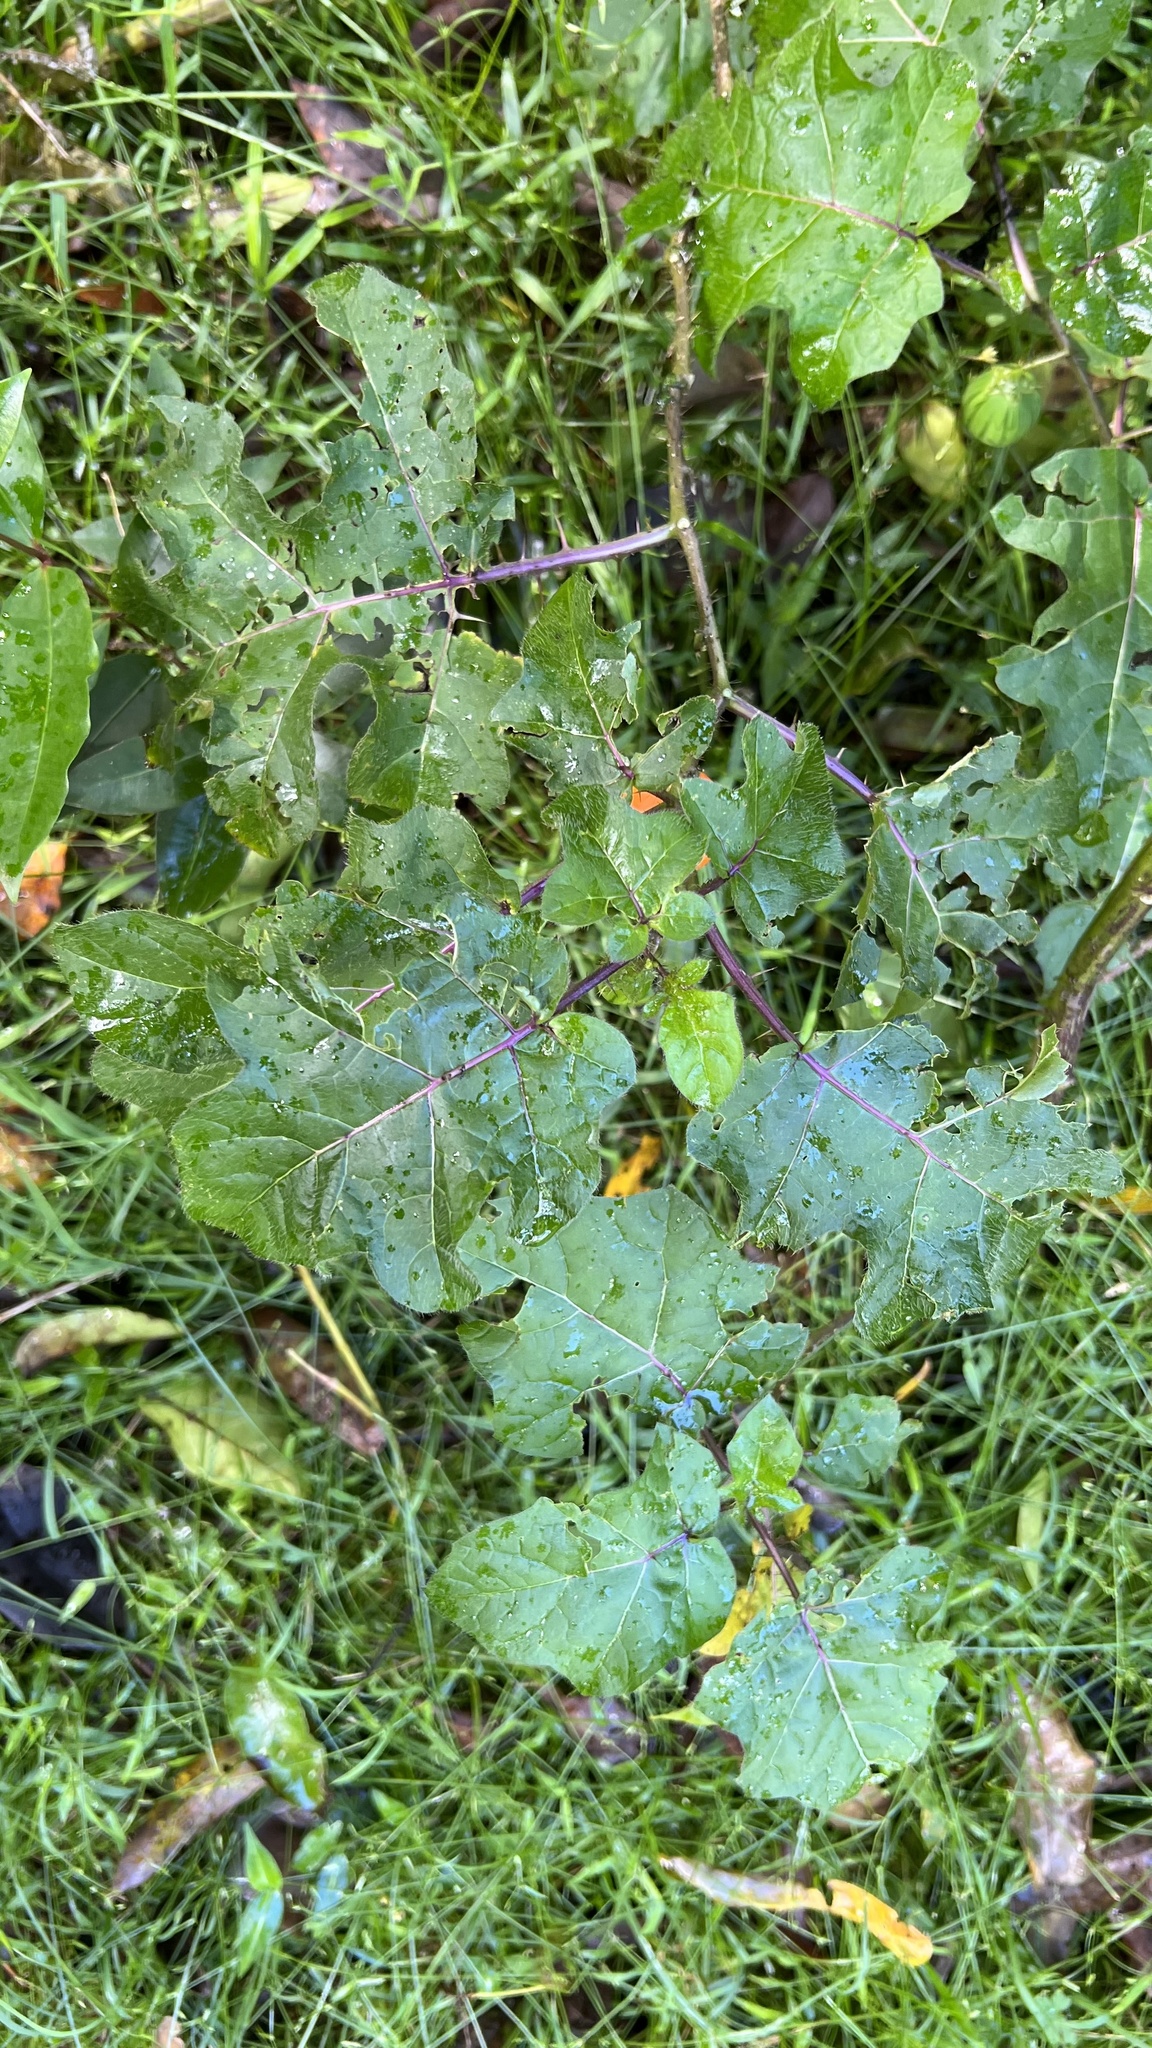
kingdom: Plantae
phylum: Tracheophyta
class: Magnoliopsida
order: Solanales
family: Solanaceae
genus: Solanum
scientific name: Solanum capsicoides
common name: Cockroach berry
